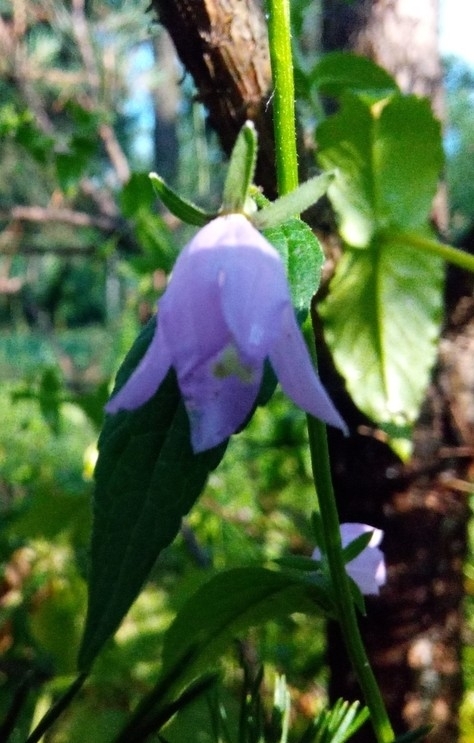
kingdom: Plantae
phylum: Tracheophyta
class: Magnoliopsida
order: Asterales
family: Campanulaceae
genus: Campanula
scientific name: Campanula rapunculoides
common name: Creeping bellflower
